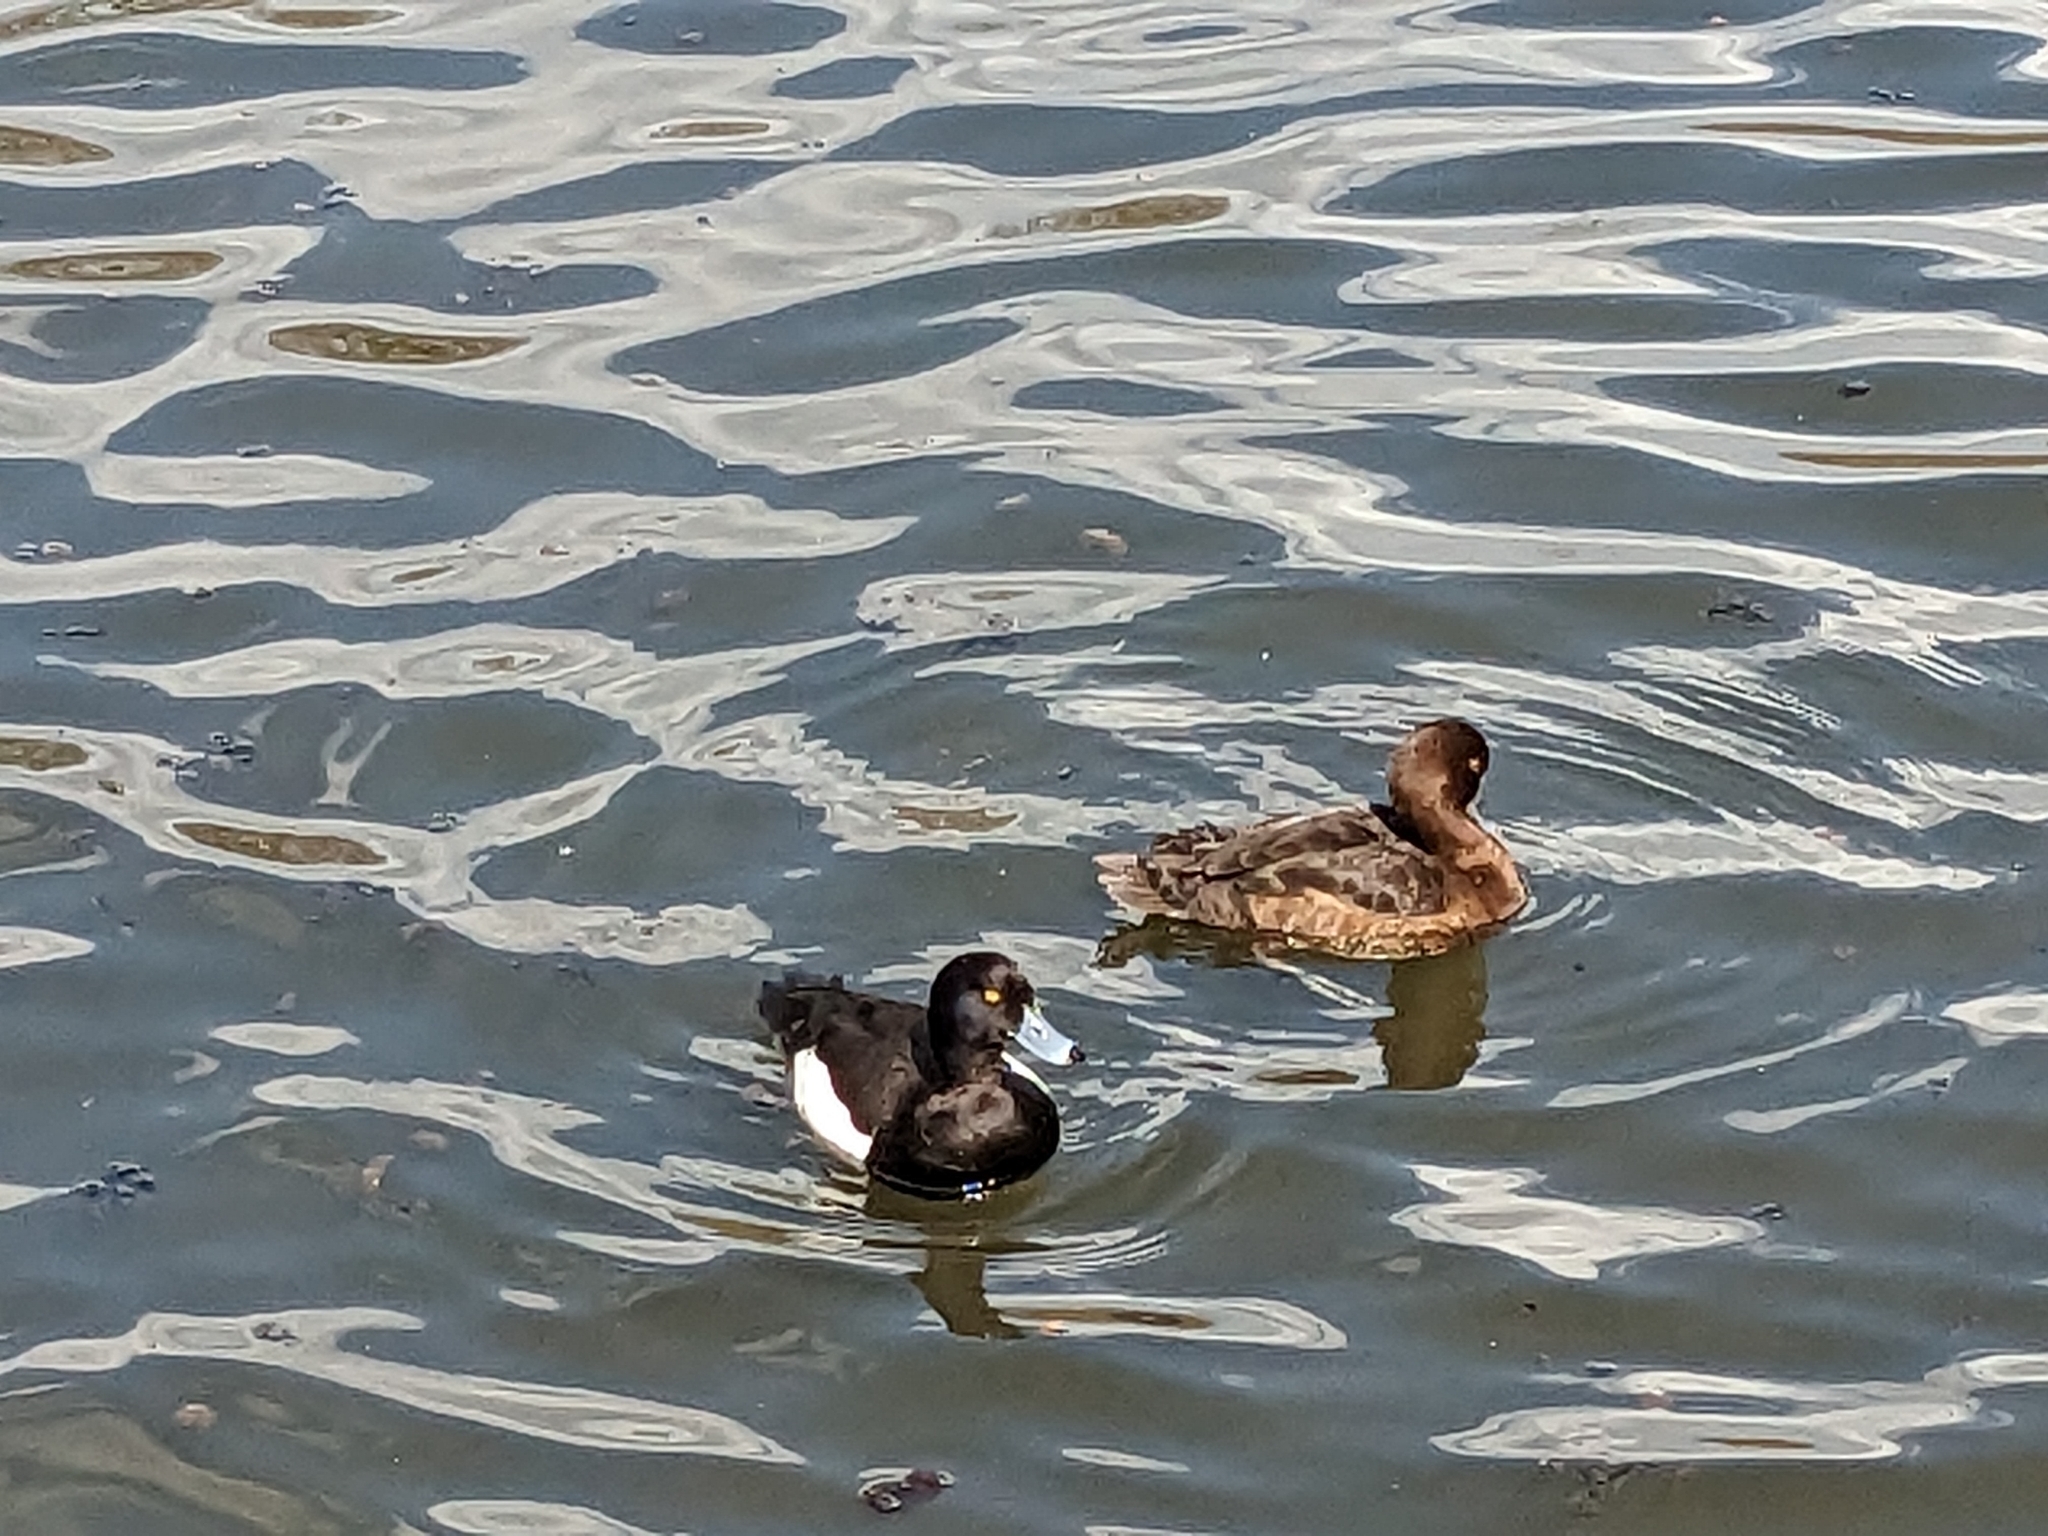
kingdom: Animalia
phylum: Chordata
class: Aves
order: Anseriformes
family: Anatidae
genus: Aythya
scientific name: Aythya fuligula
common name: Tufted duck
